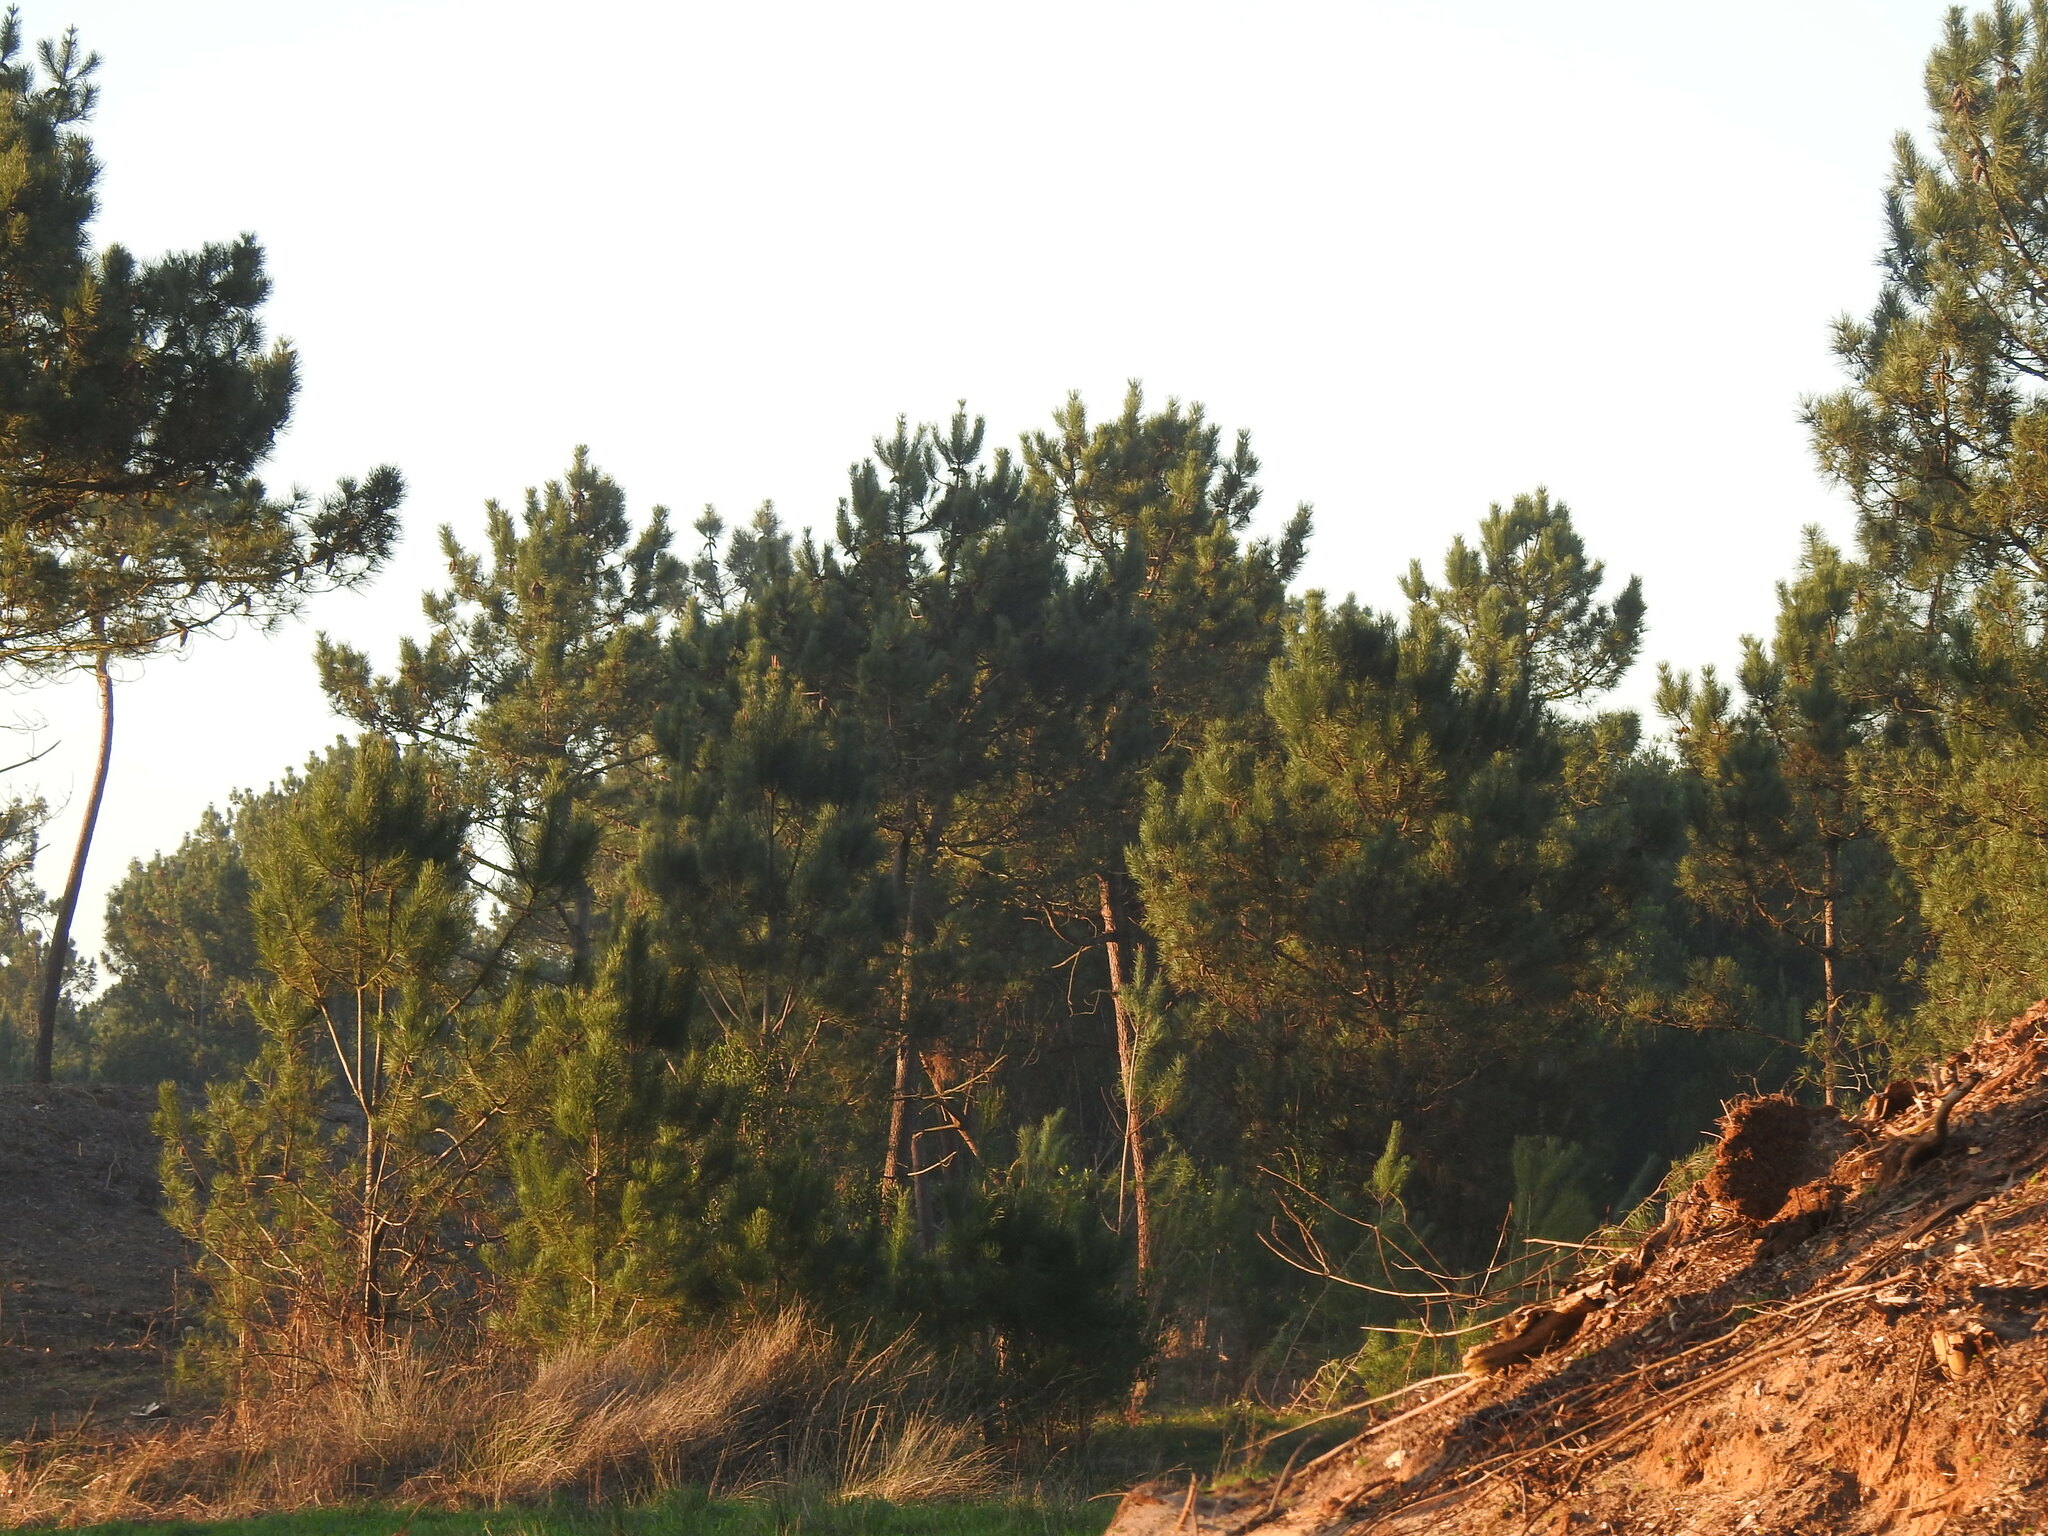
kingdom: Plantae
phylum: Tracheophyta
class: Pinopsida
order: Pinales
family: Pinaceae
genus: Pinus
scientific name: Pinus pinaster
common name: Maritime pine
